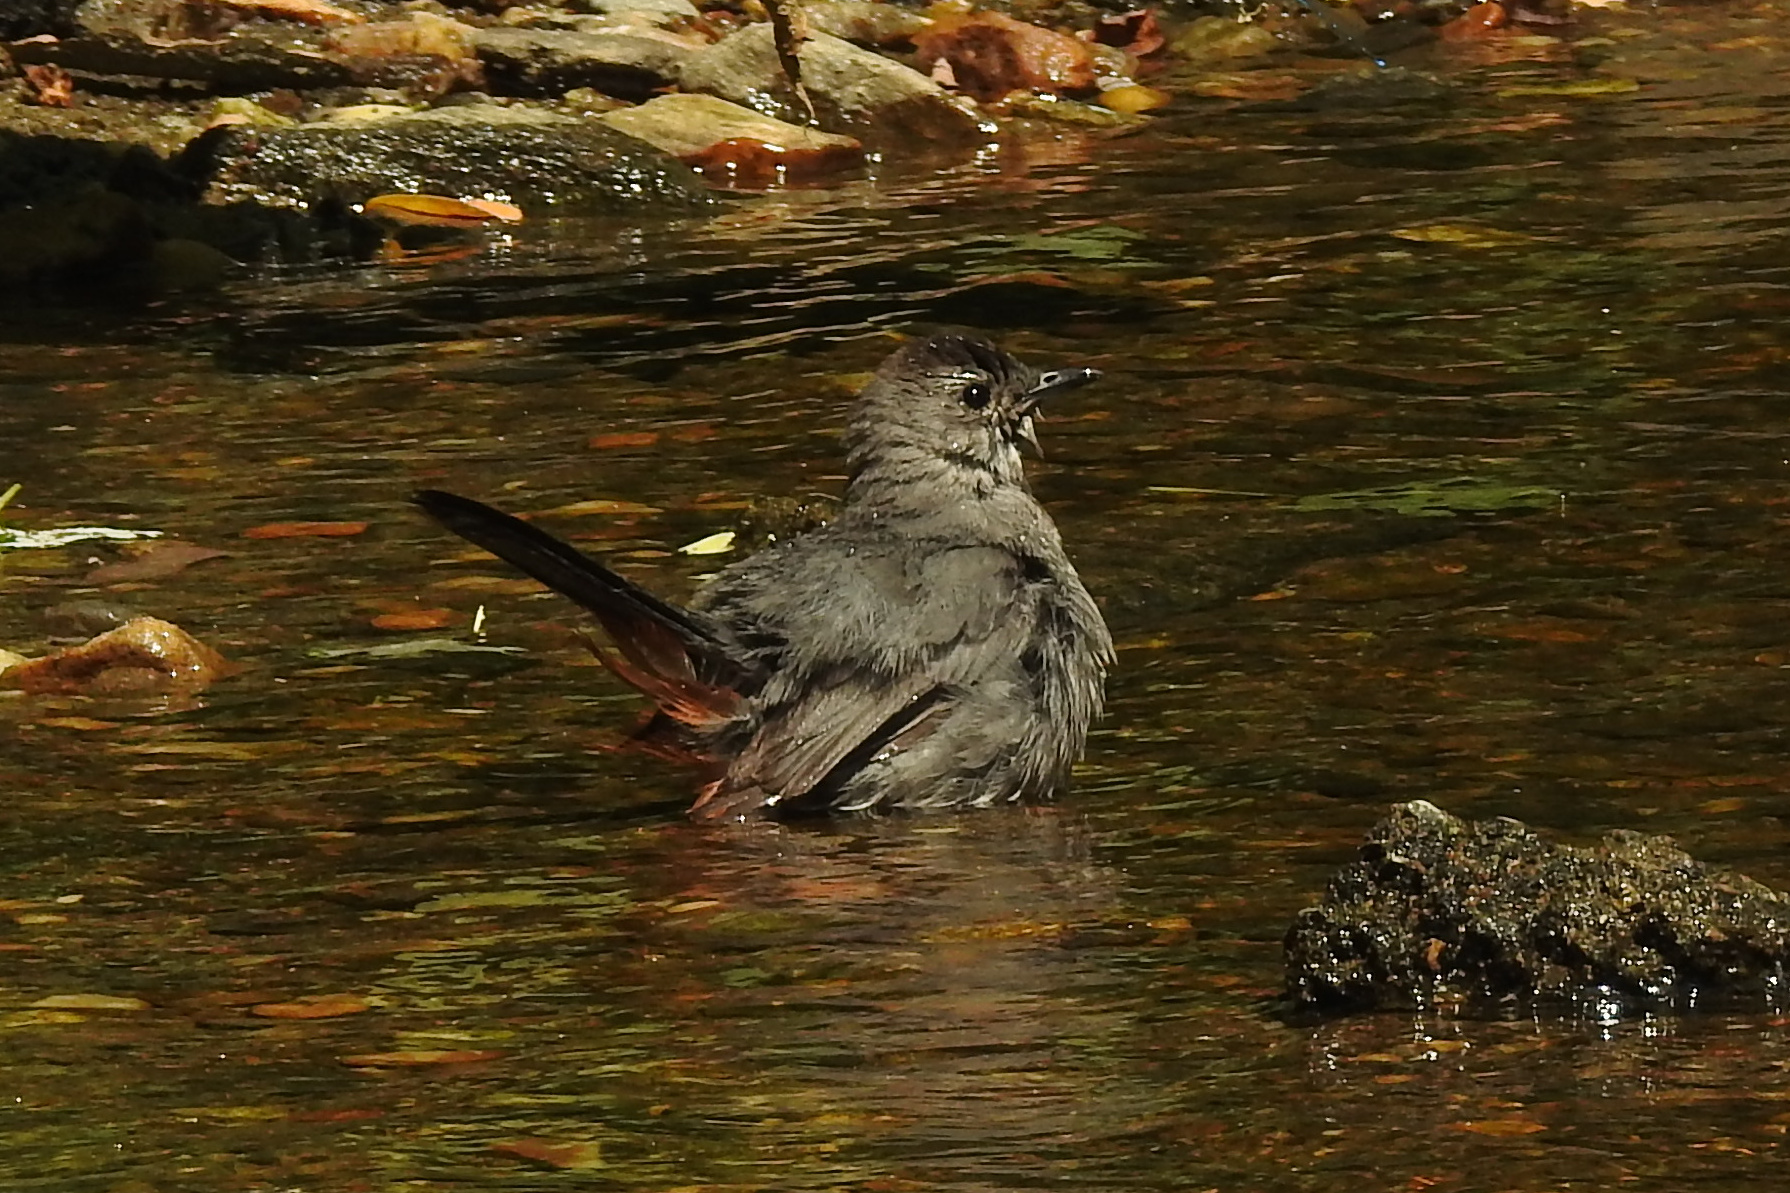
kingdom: Animalia
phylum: Chordata
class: Aves
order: Passeriformes
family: Mimidae
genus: Dumetella
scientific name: Dumetella carolinensis
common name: Gray catbird
